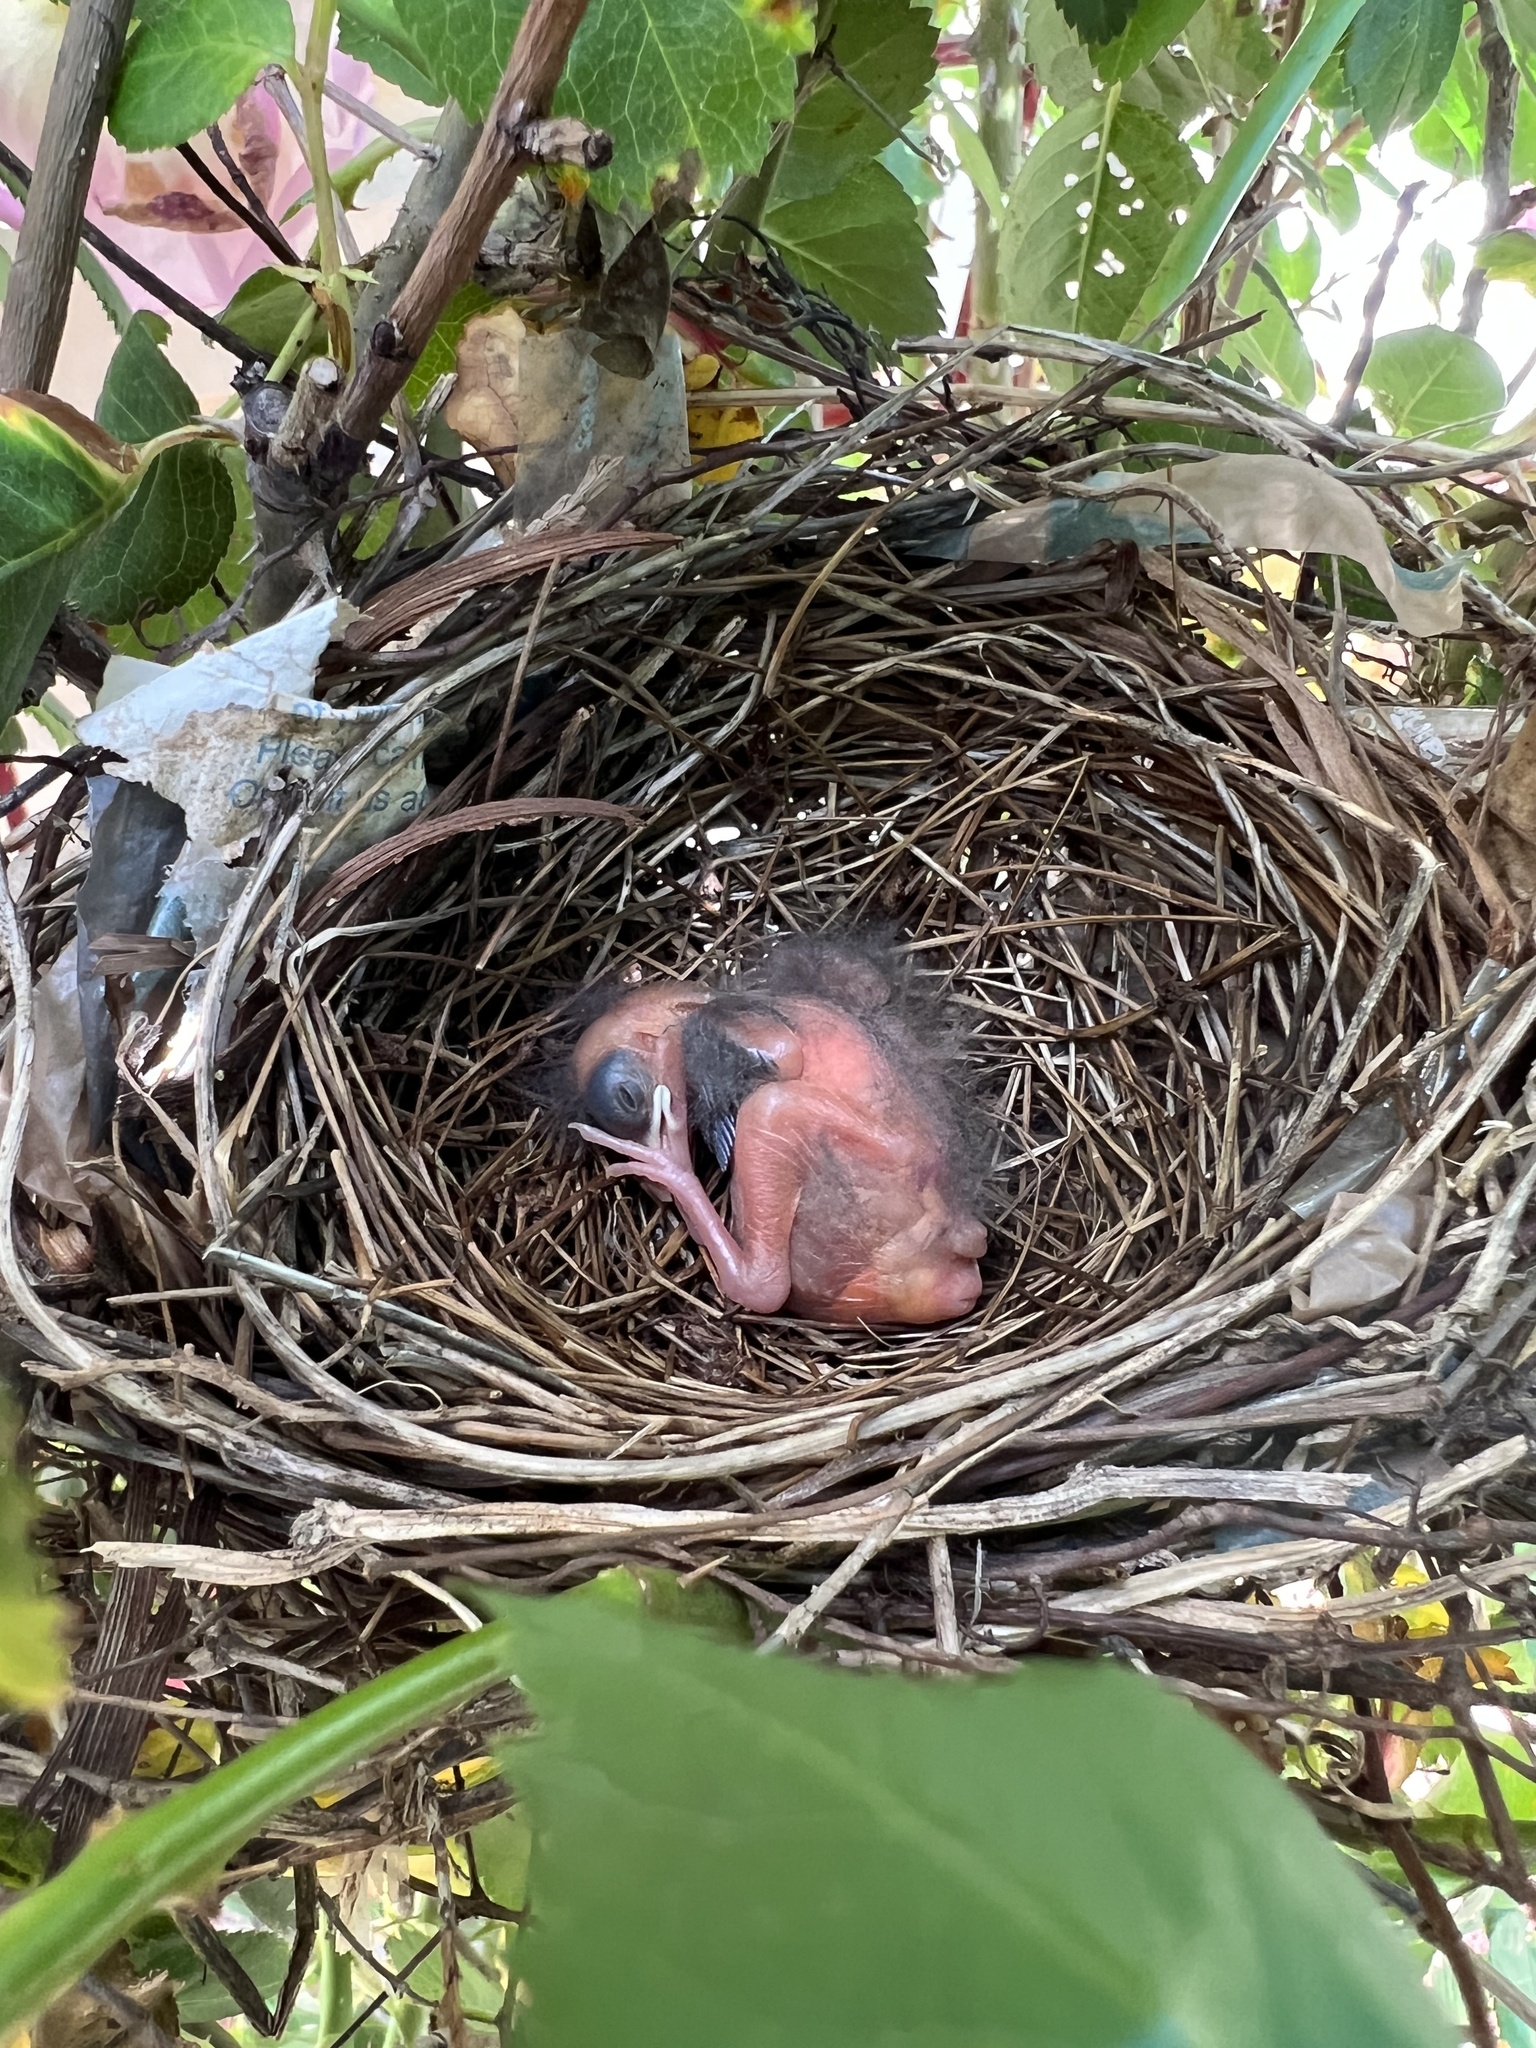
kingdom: Animalia
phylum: Chordata
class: Aves
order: Passeriformes
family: Cardinalidae
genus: Cardinalis
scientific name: Cardinalis cardinalis
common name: Northern cardinal
